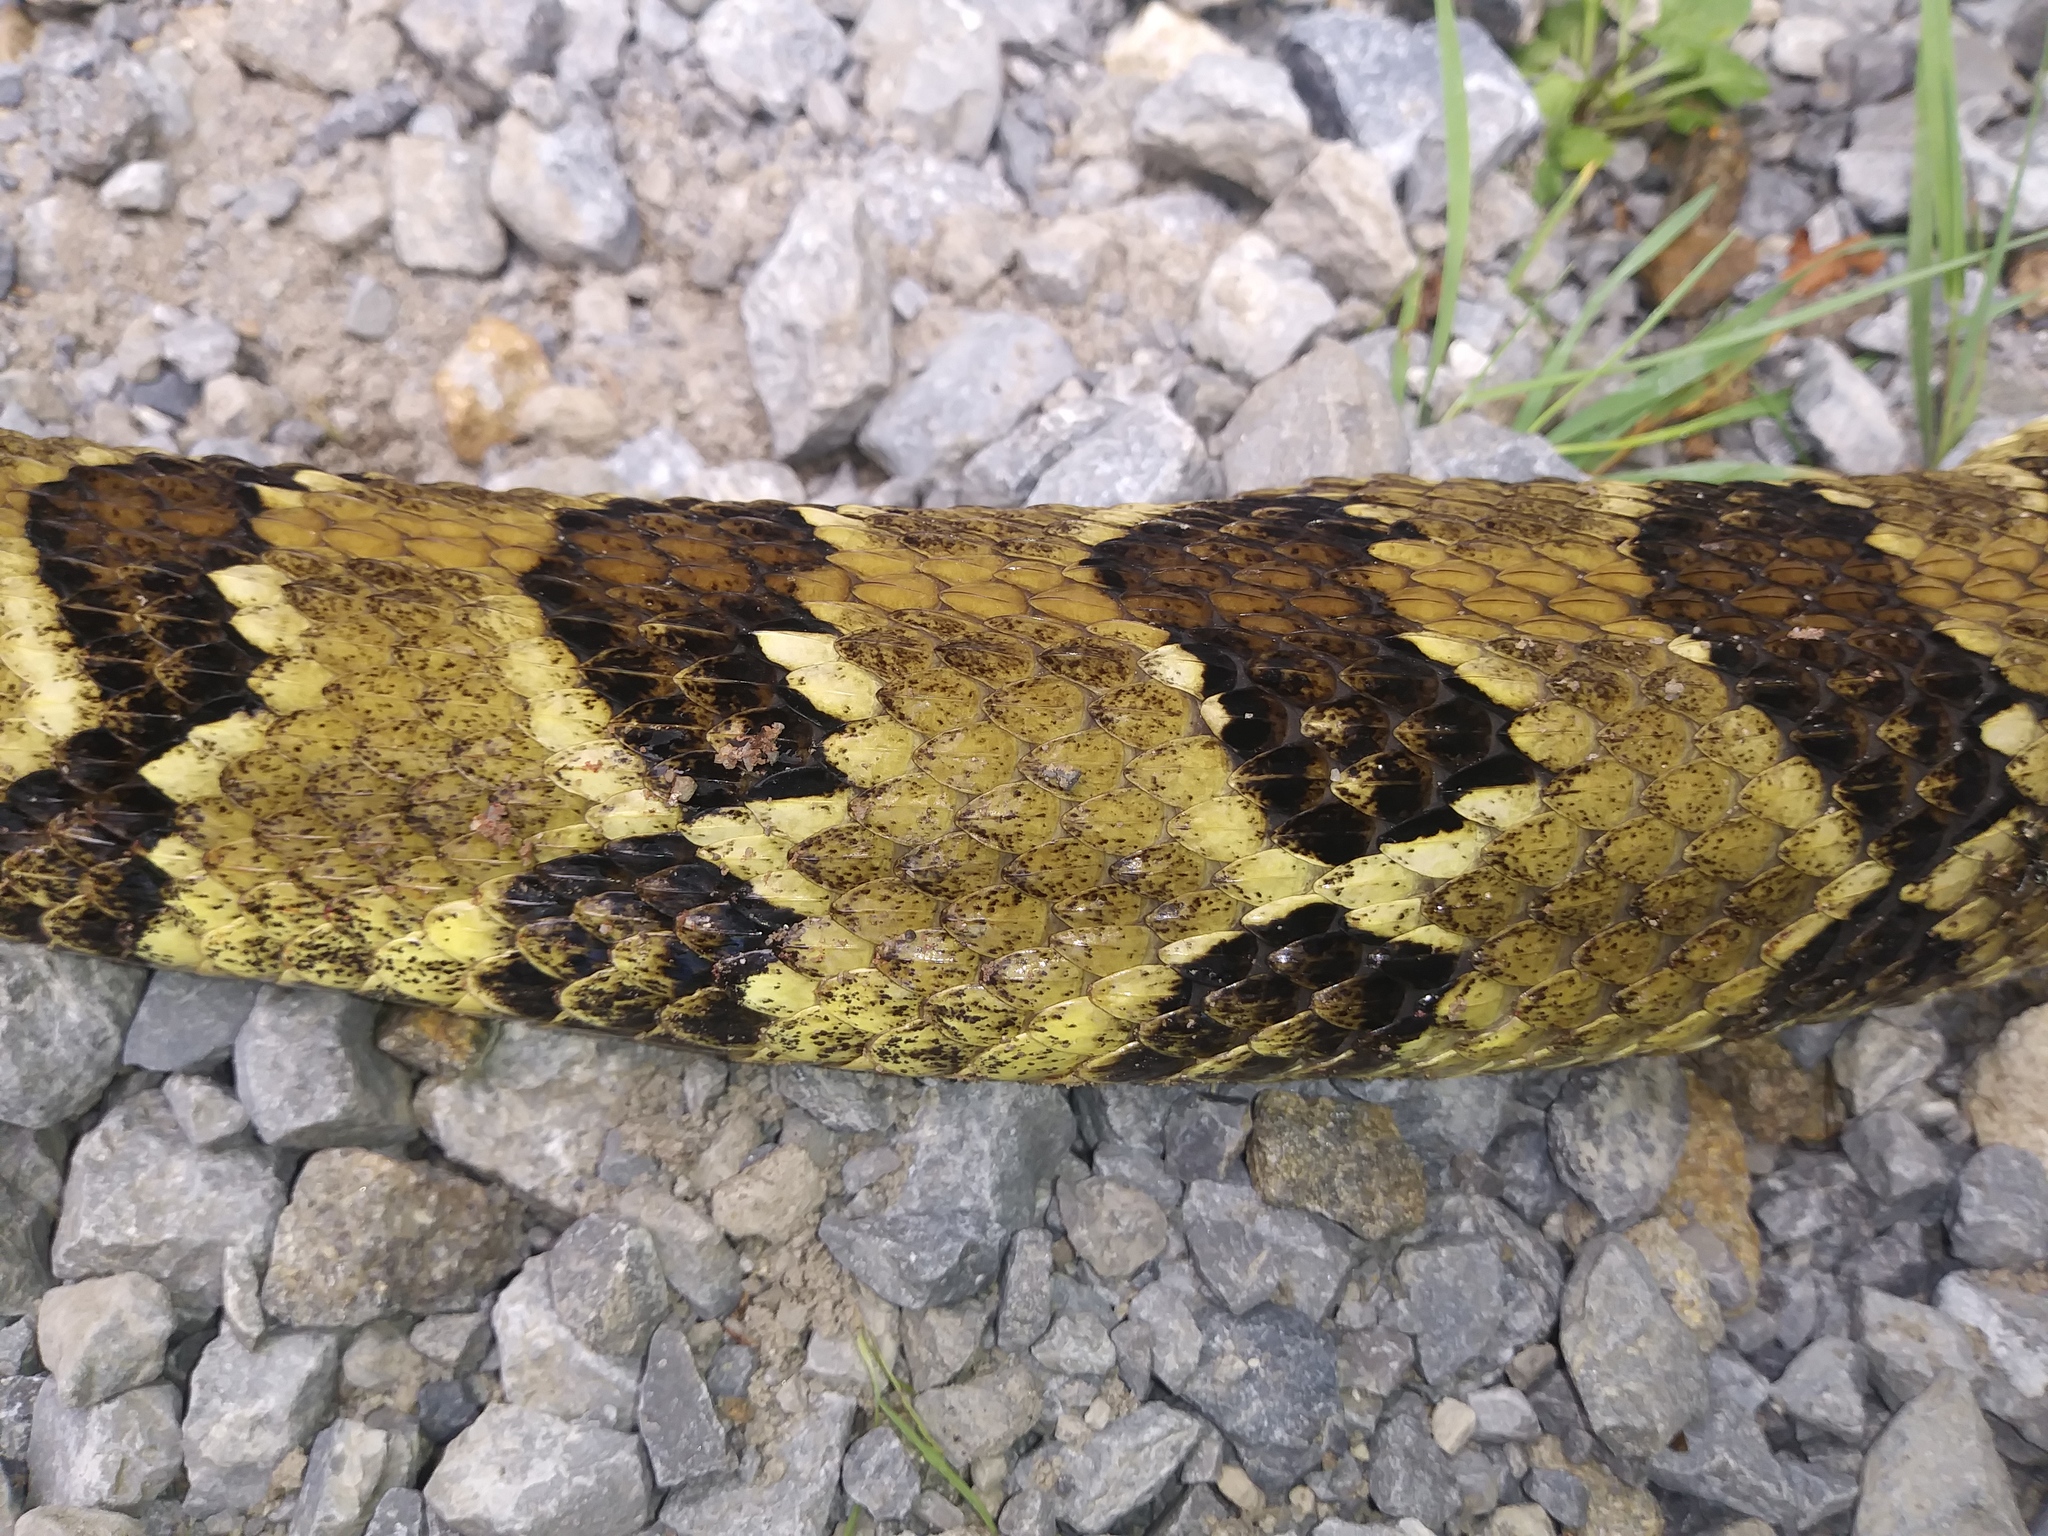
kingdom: Animalia
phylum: Chordata
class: Squamata
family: Viperidae
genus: Crotalus
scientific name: Crotalus horridus
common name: Timber rattlesnake
